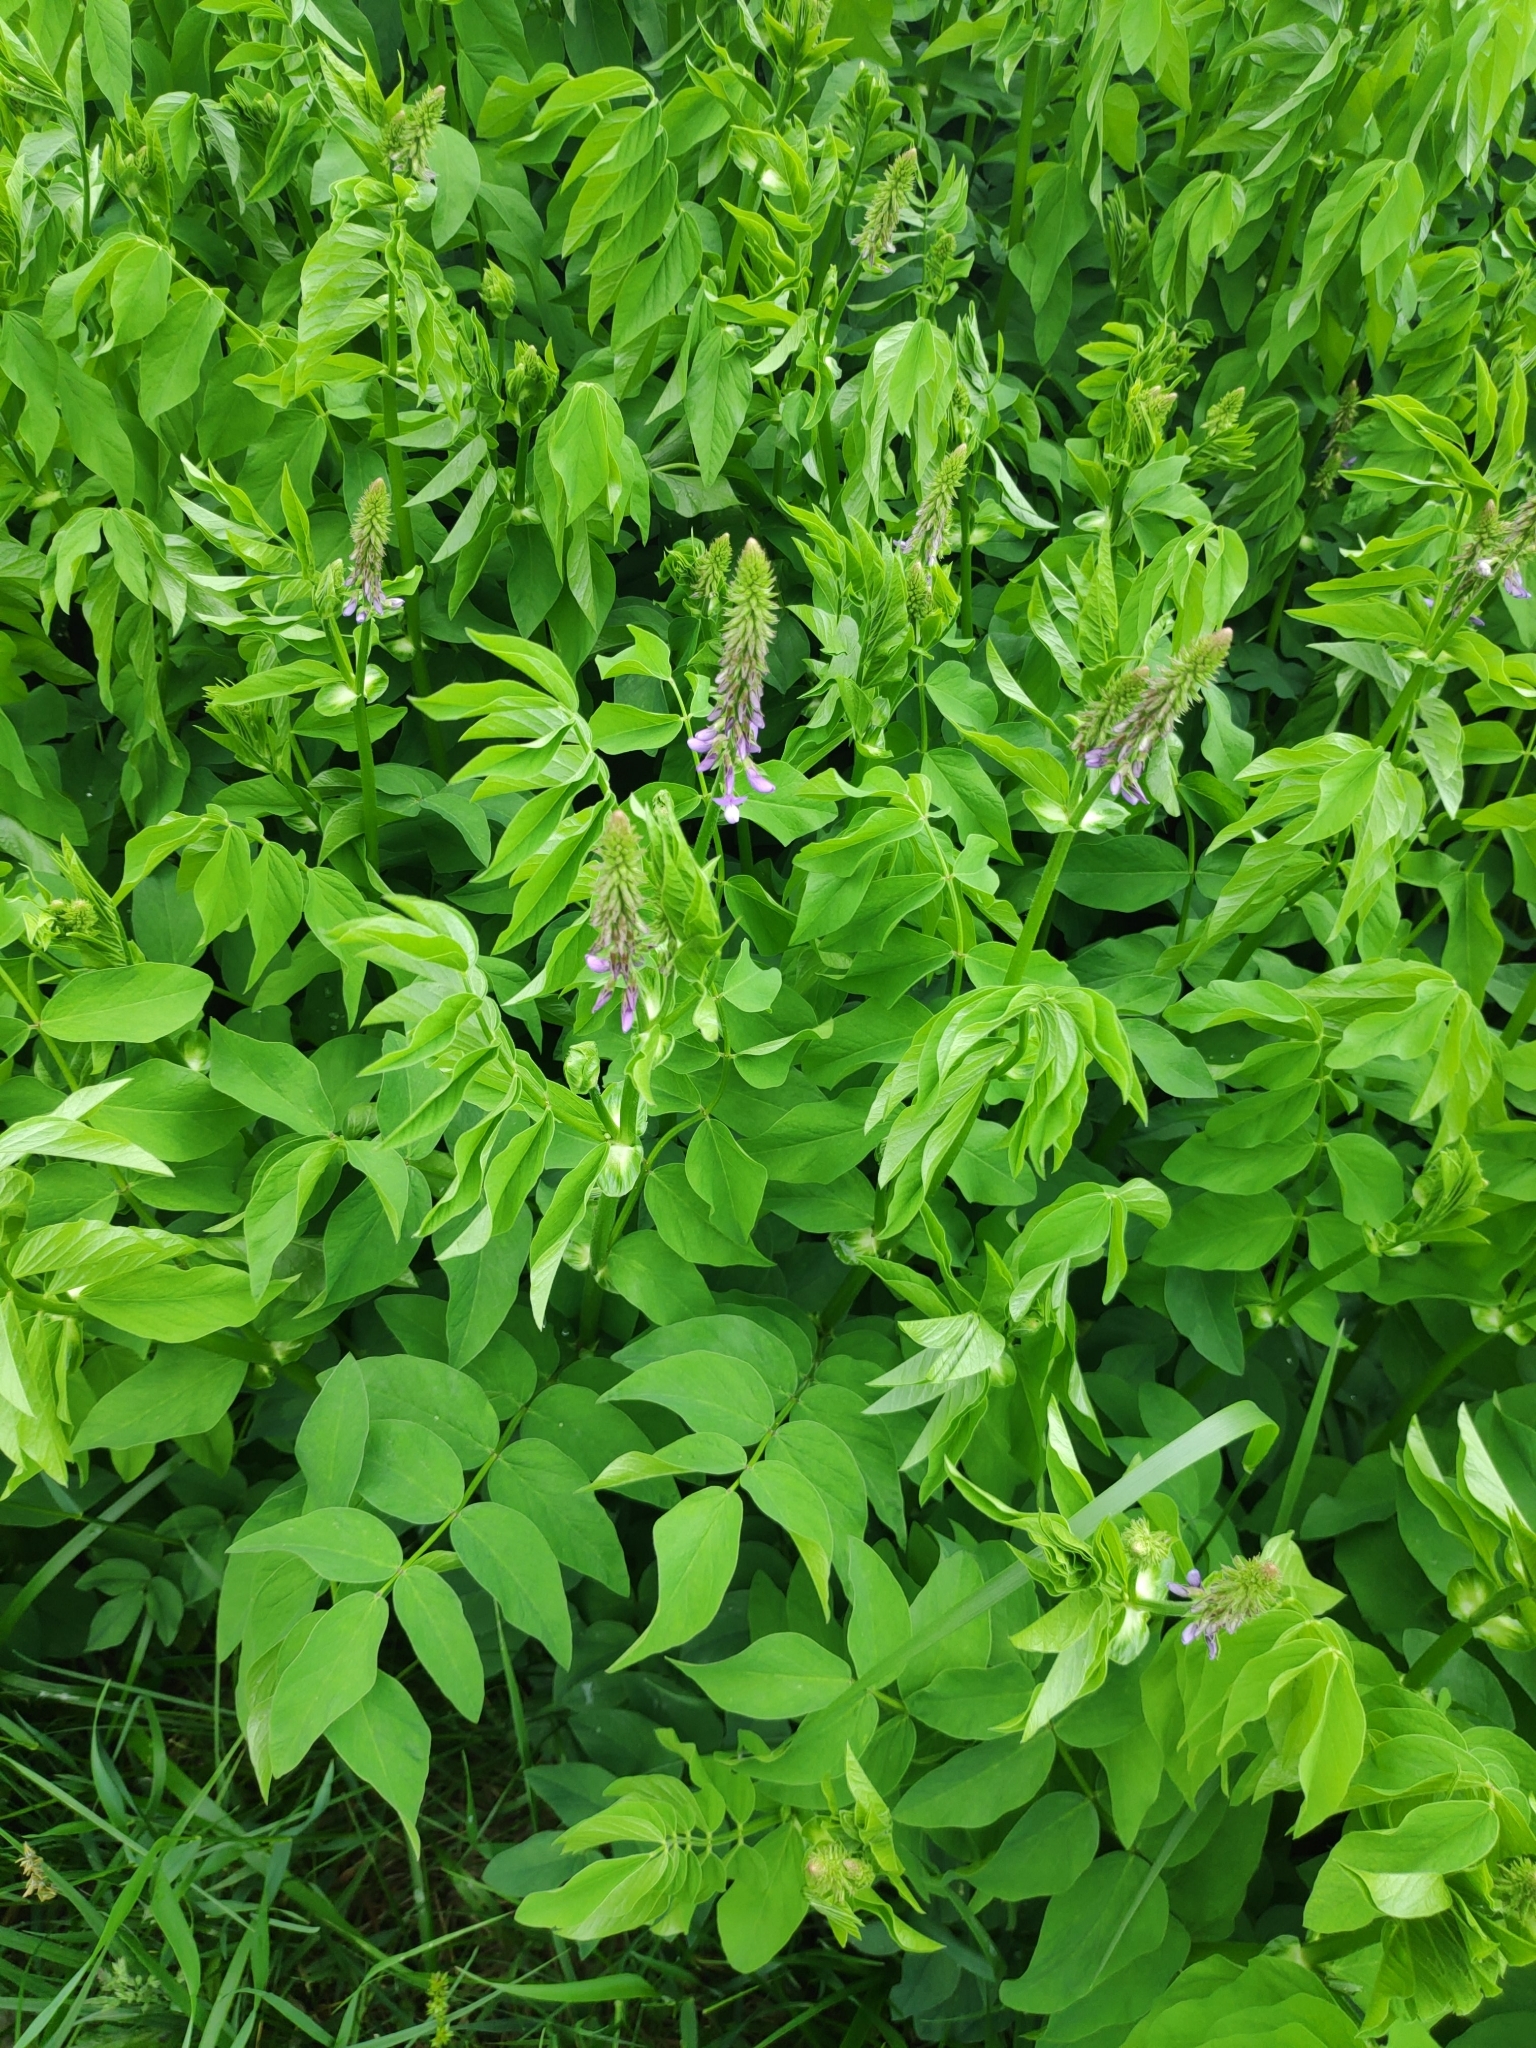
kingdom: Plantae
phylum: Tracheophyta
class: Magnoliopsida
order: Fabales
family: Fabaceae
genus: Galega
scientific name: Galega orientalis
